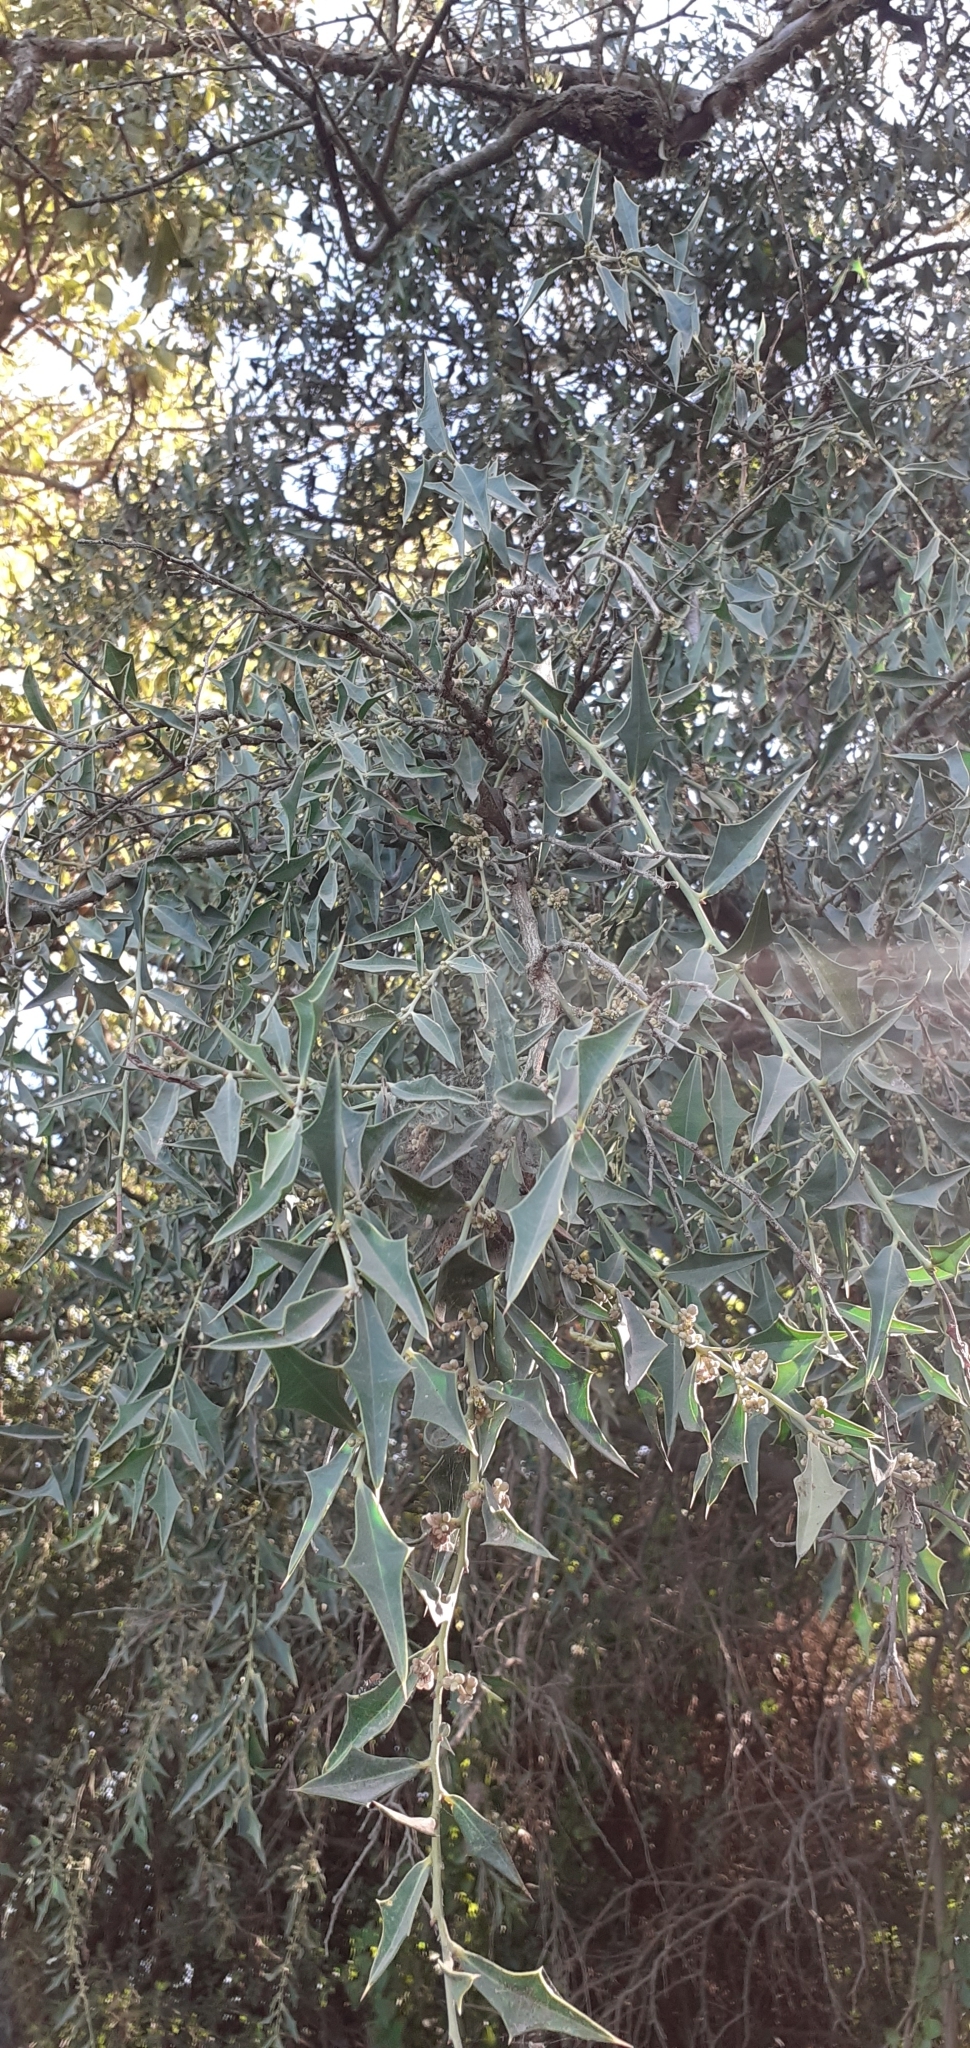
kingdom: Plantae
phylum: Tracheophyta
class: Magnoliopsida
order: Santalales
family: Cervantesiaceae
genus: Jodina
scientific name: Jodina rhombifolia
